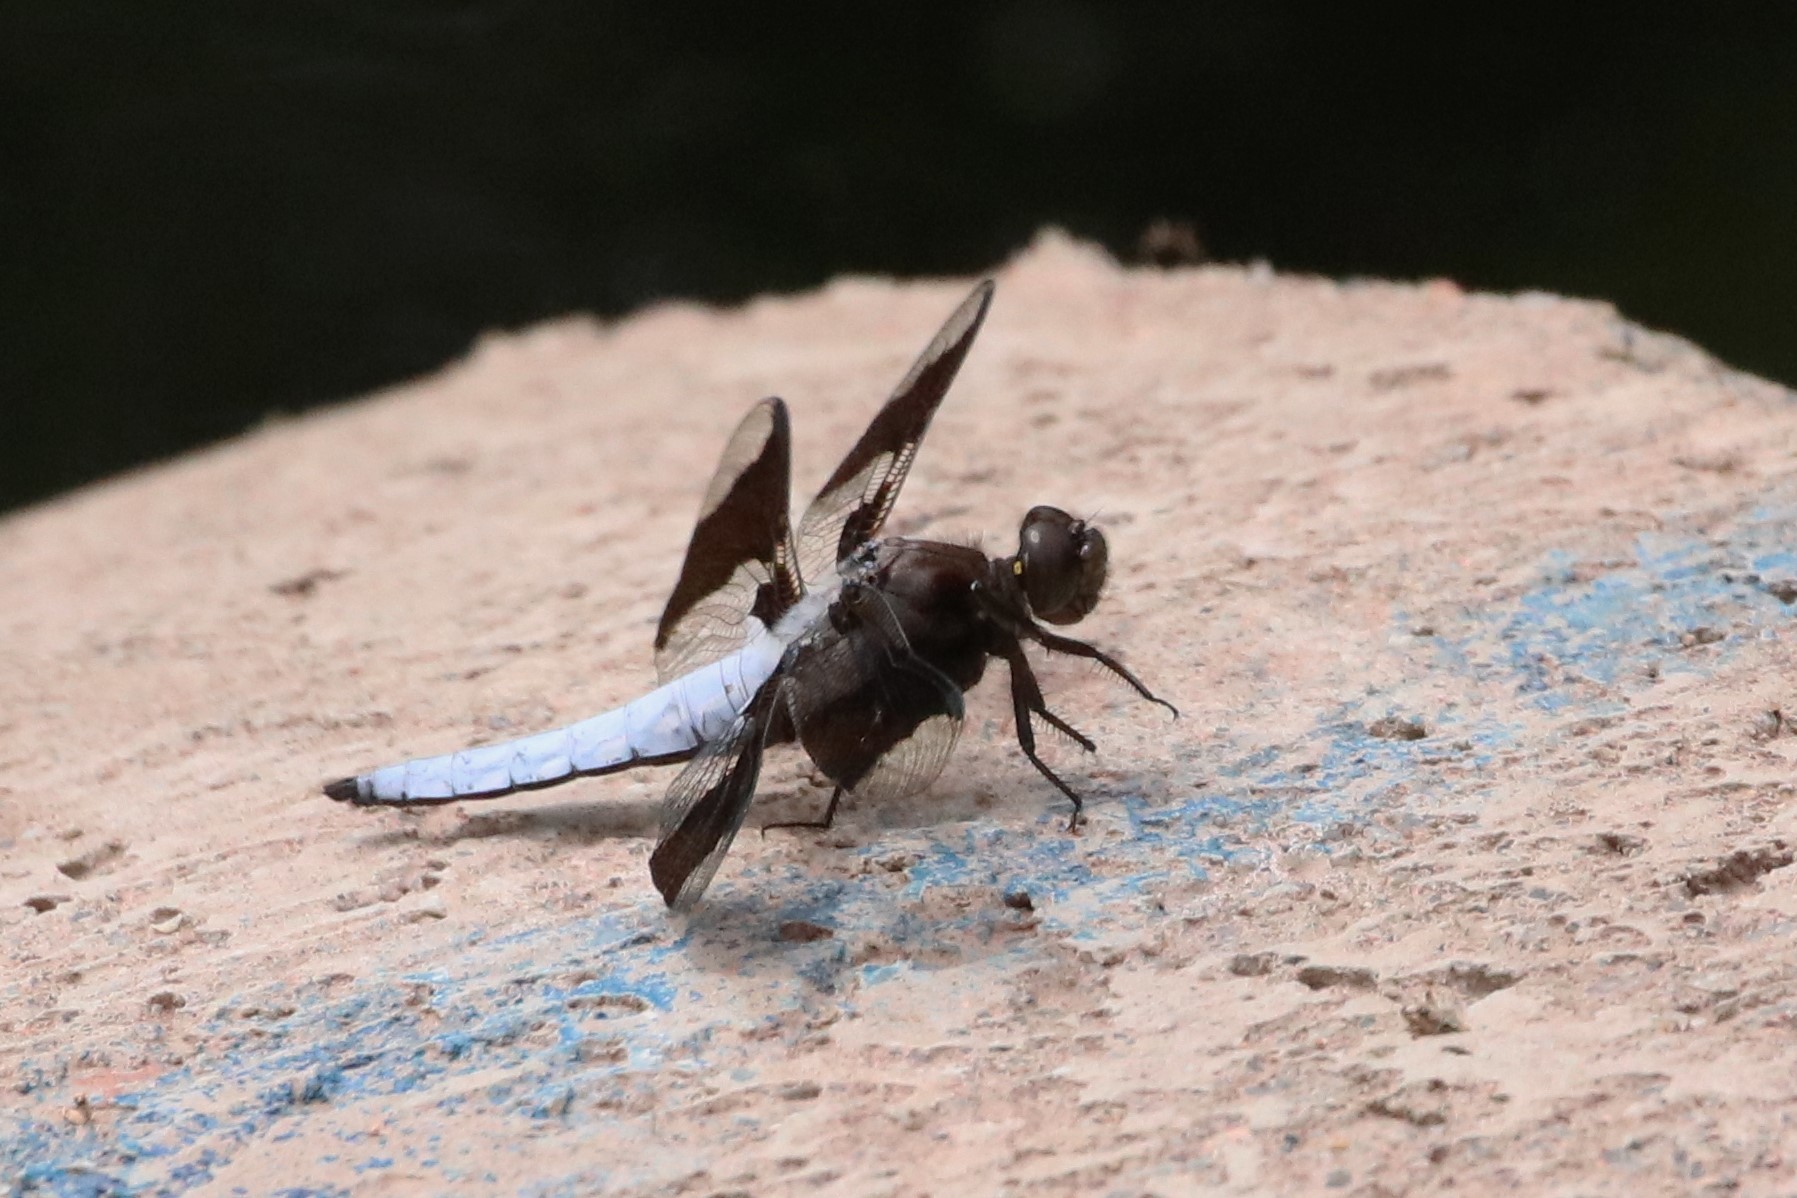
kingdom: Animalia
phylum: Arthropoda
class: Insecta
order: Odonata
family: Libellulidae
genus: Plathemis
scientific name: Plathemis lydia
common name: Common whitetail
